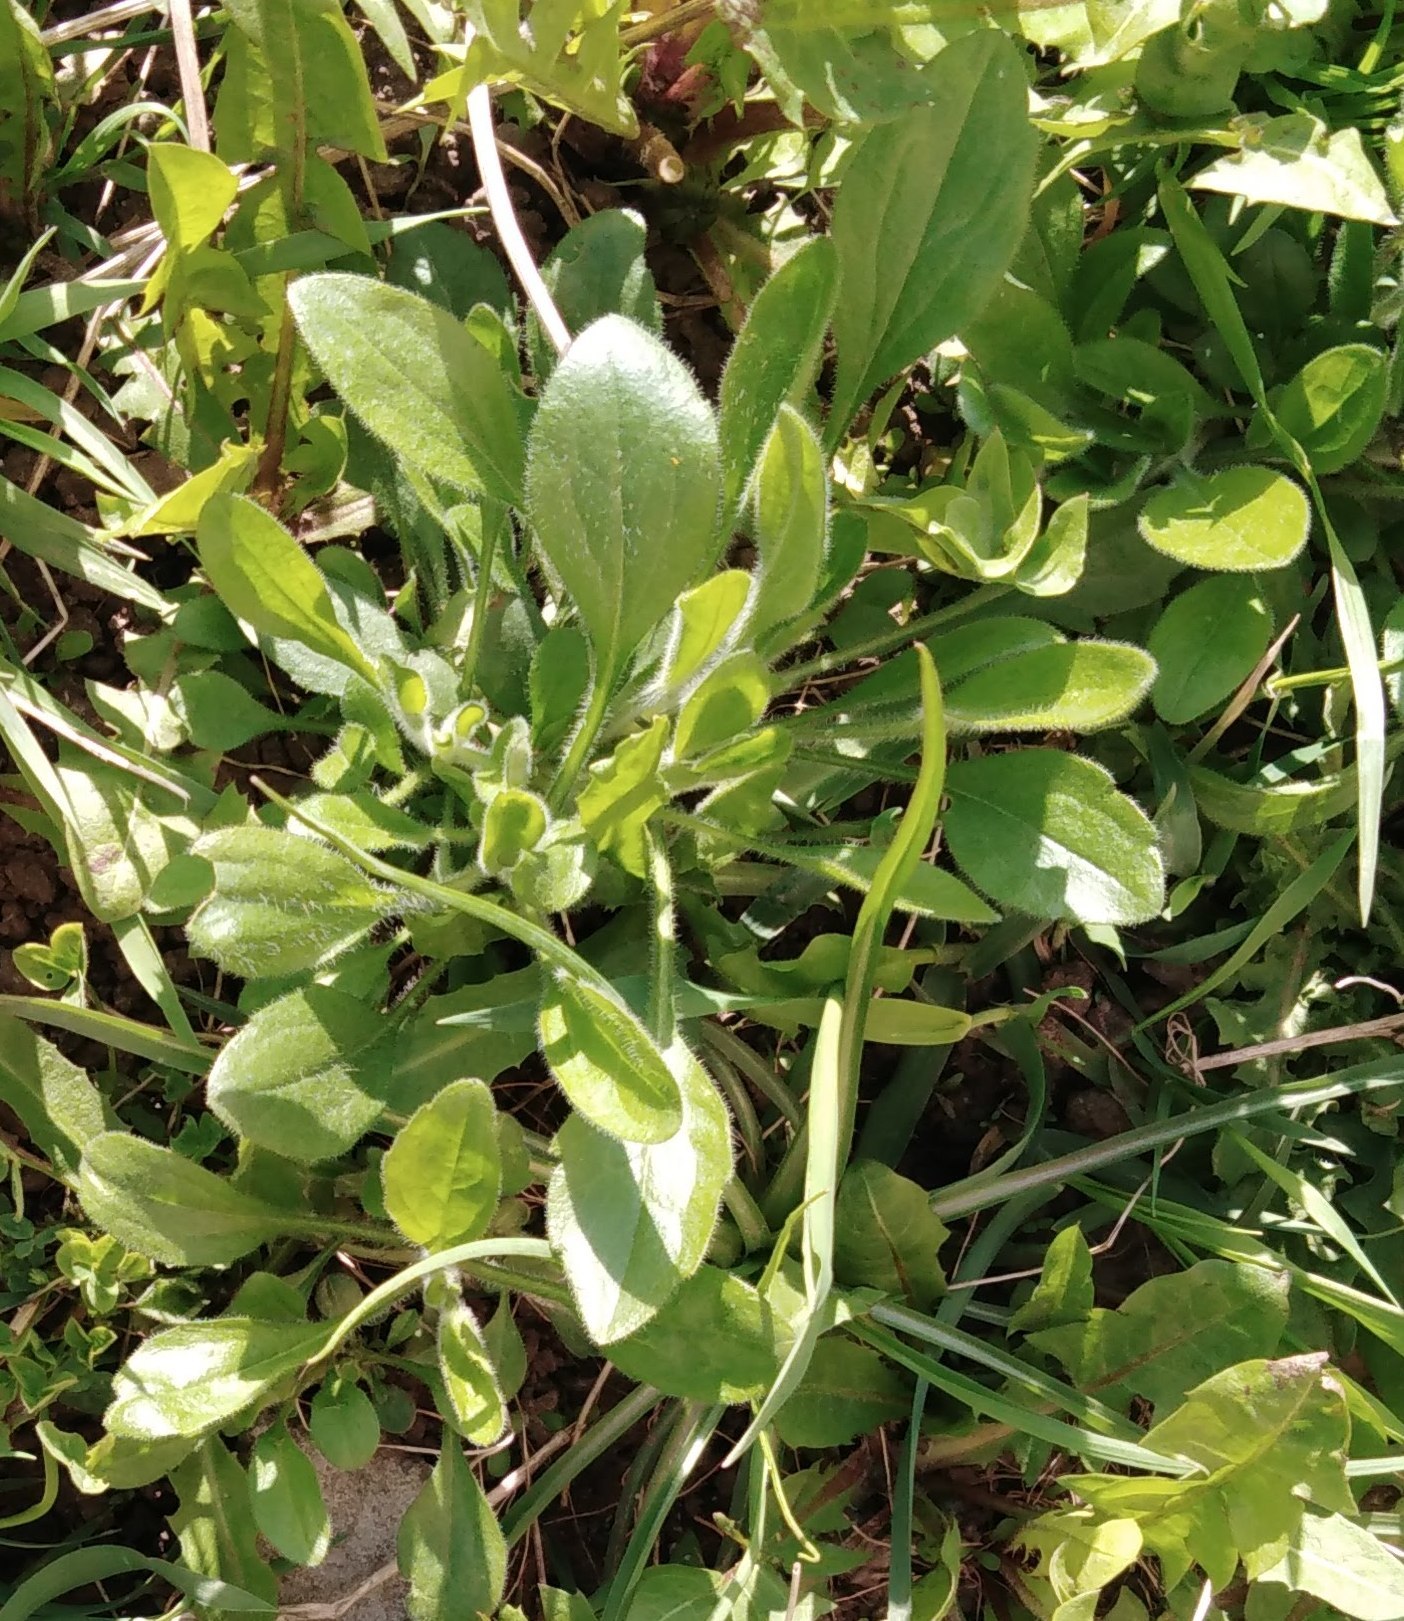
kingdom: Plantae
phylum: Tracheophyta
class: Magnoliopsida
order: Asterales
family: Asteraceae
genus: Erigeron
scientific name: Erigeron annuus
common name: Tall fleabane
